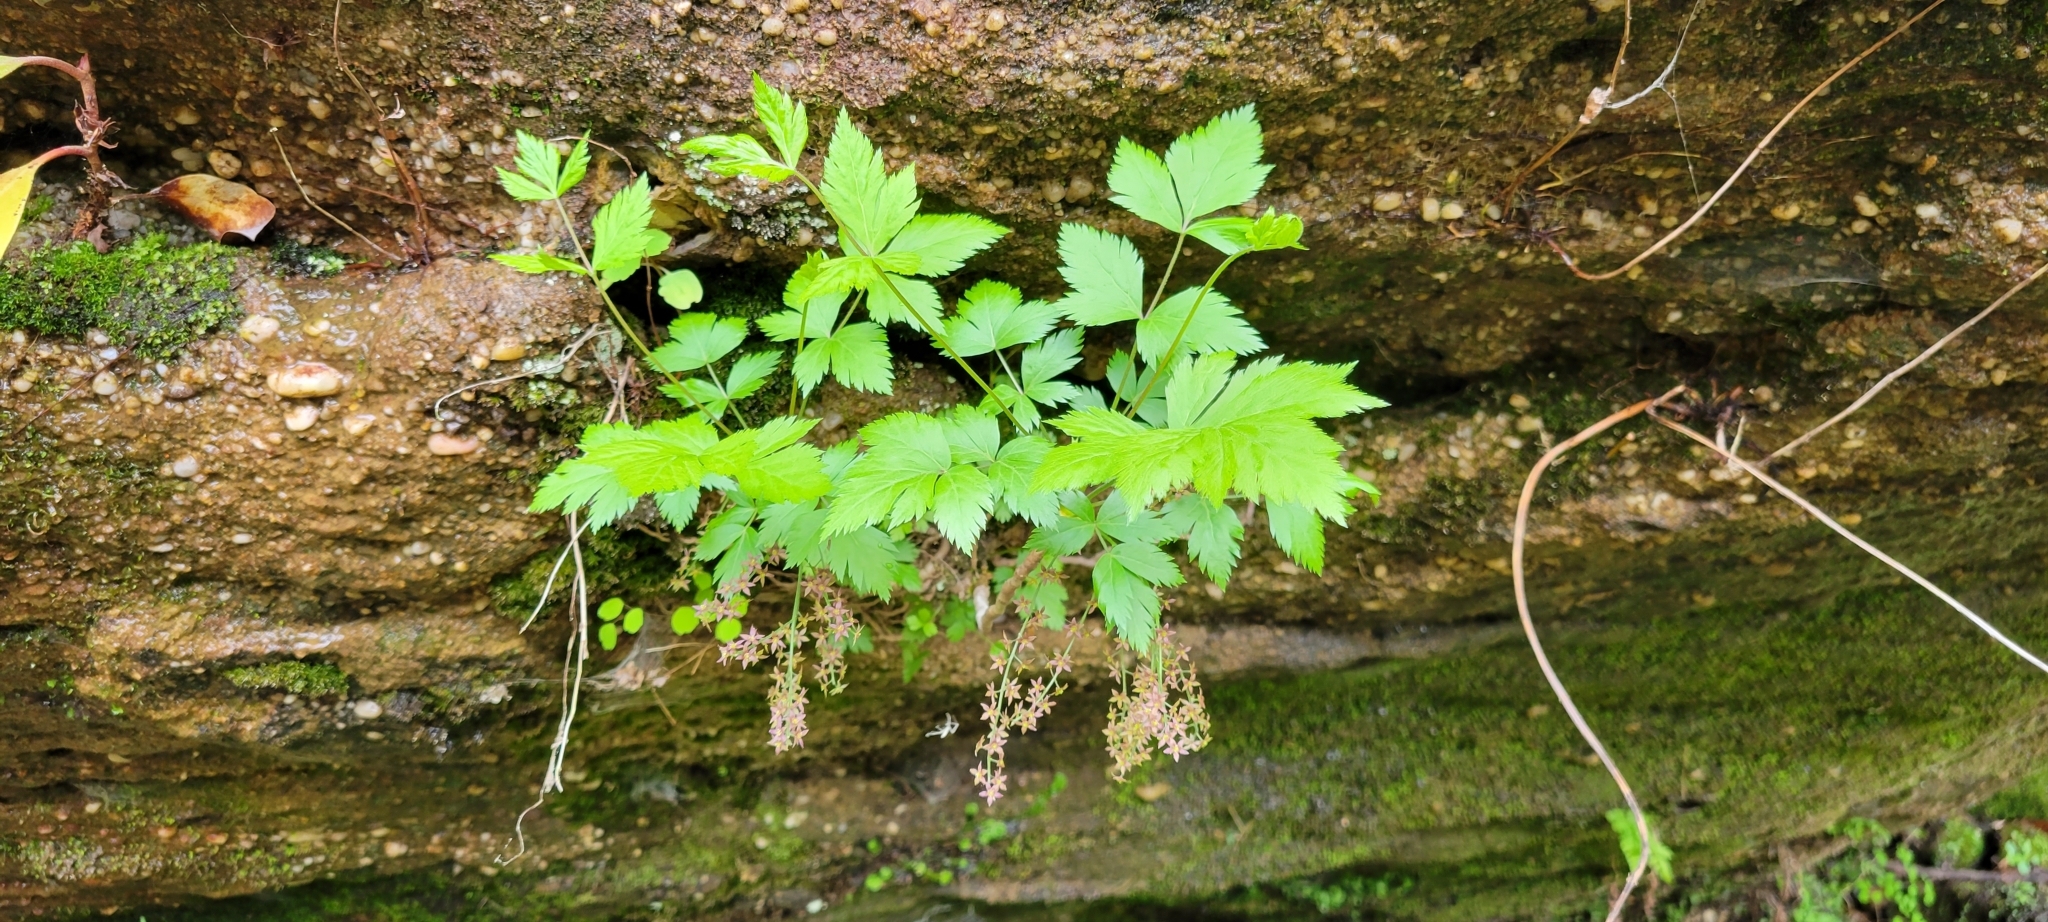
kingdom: Plantae
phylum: Tracheophyta
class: Magnoliopsida
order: Ranunculales
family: Ranunculaceae
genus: Xanthorhiza
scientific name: Xanthorhiza simplicissima
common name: Yellowroot
